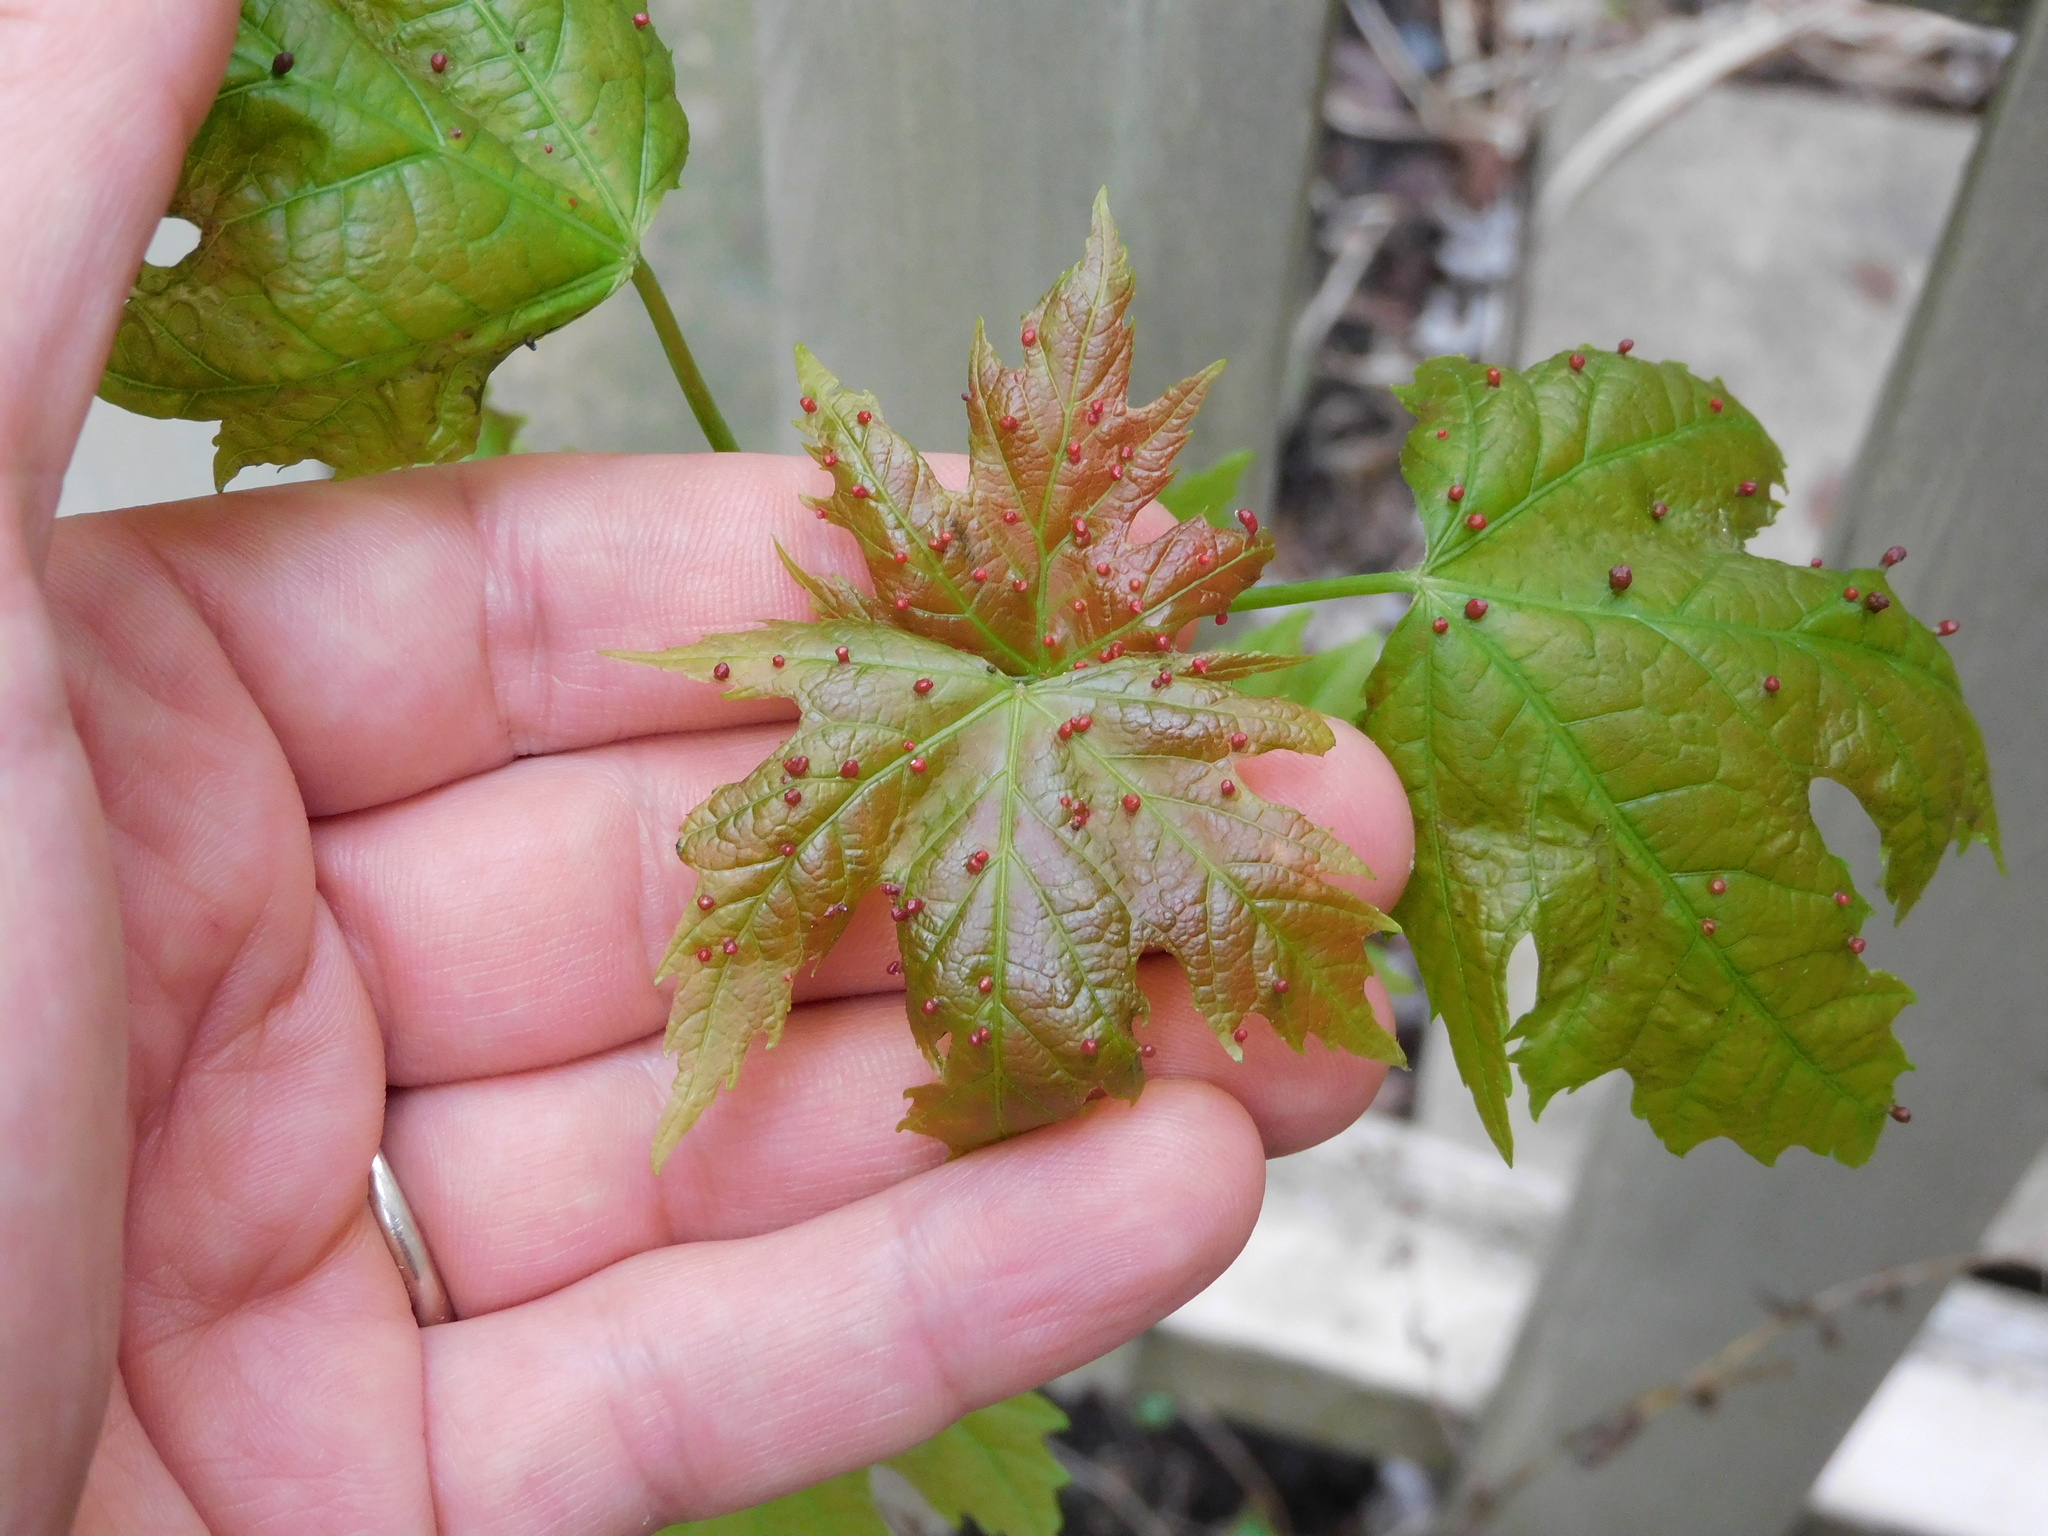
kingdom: Animalia
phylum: Arthropoda
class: Arachnida
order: Trombidiformes
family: Eriophyidae
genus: Vasates
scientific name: Vasates quadripedes
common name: Maple bladder gall mite
